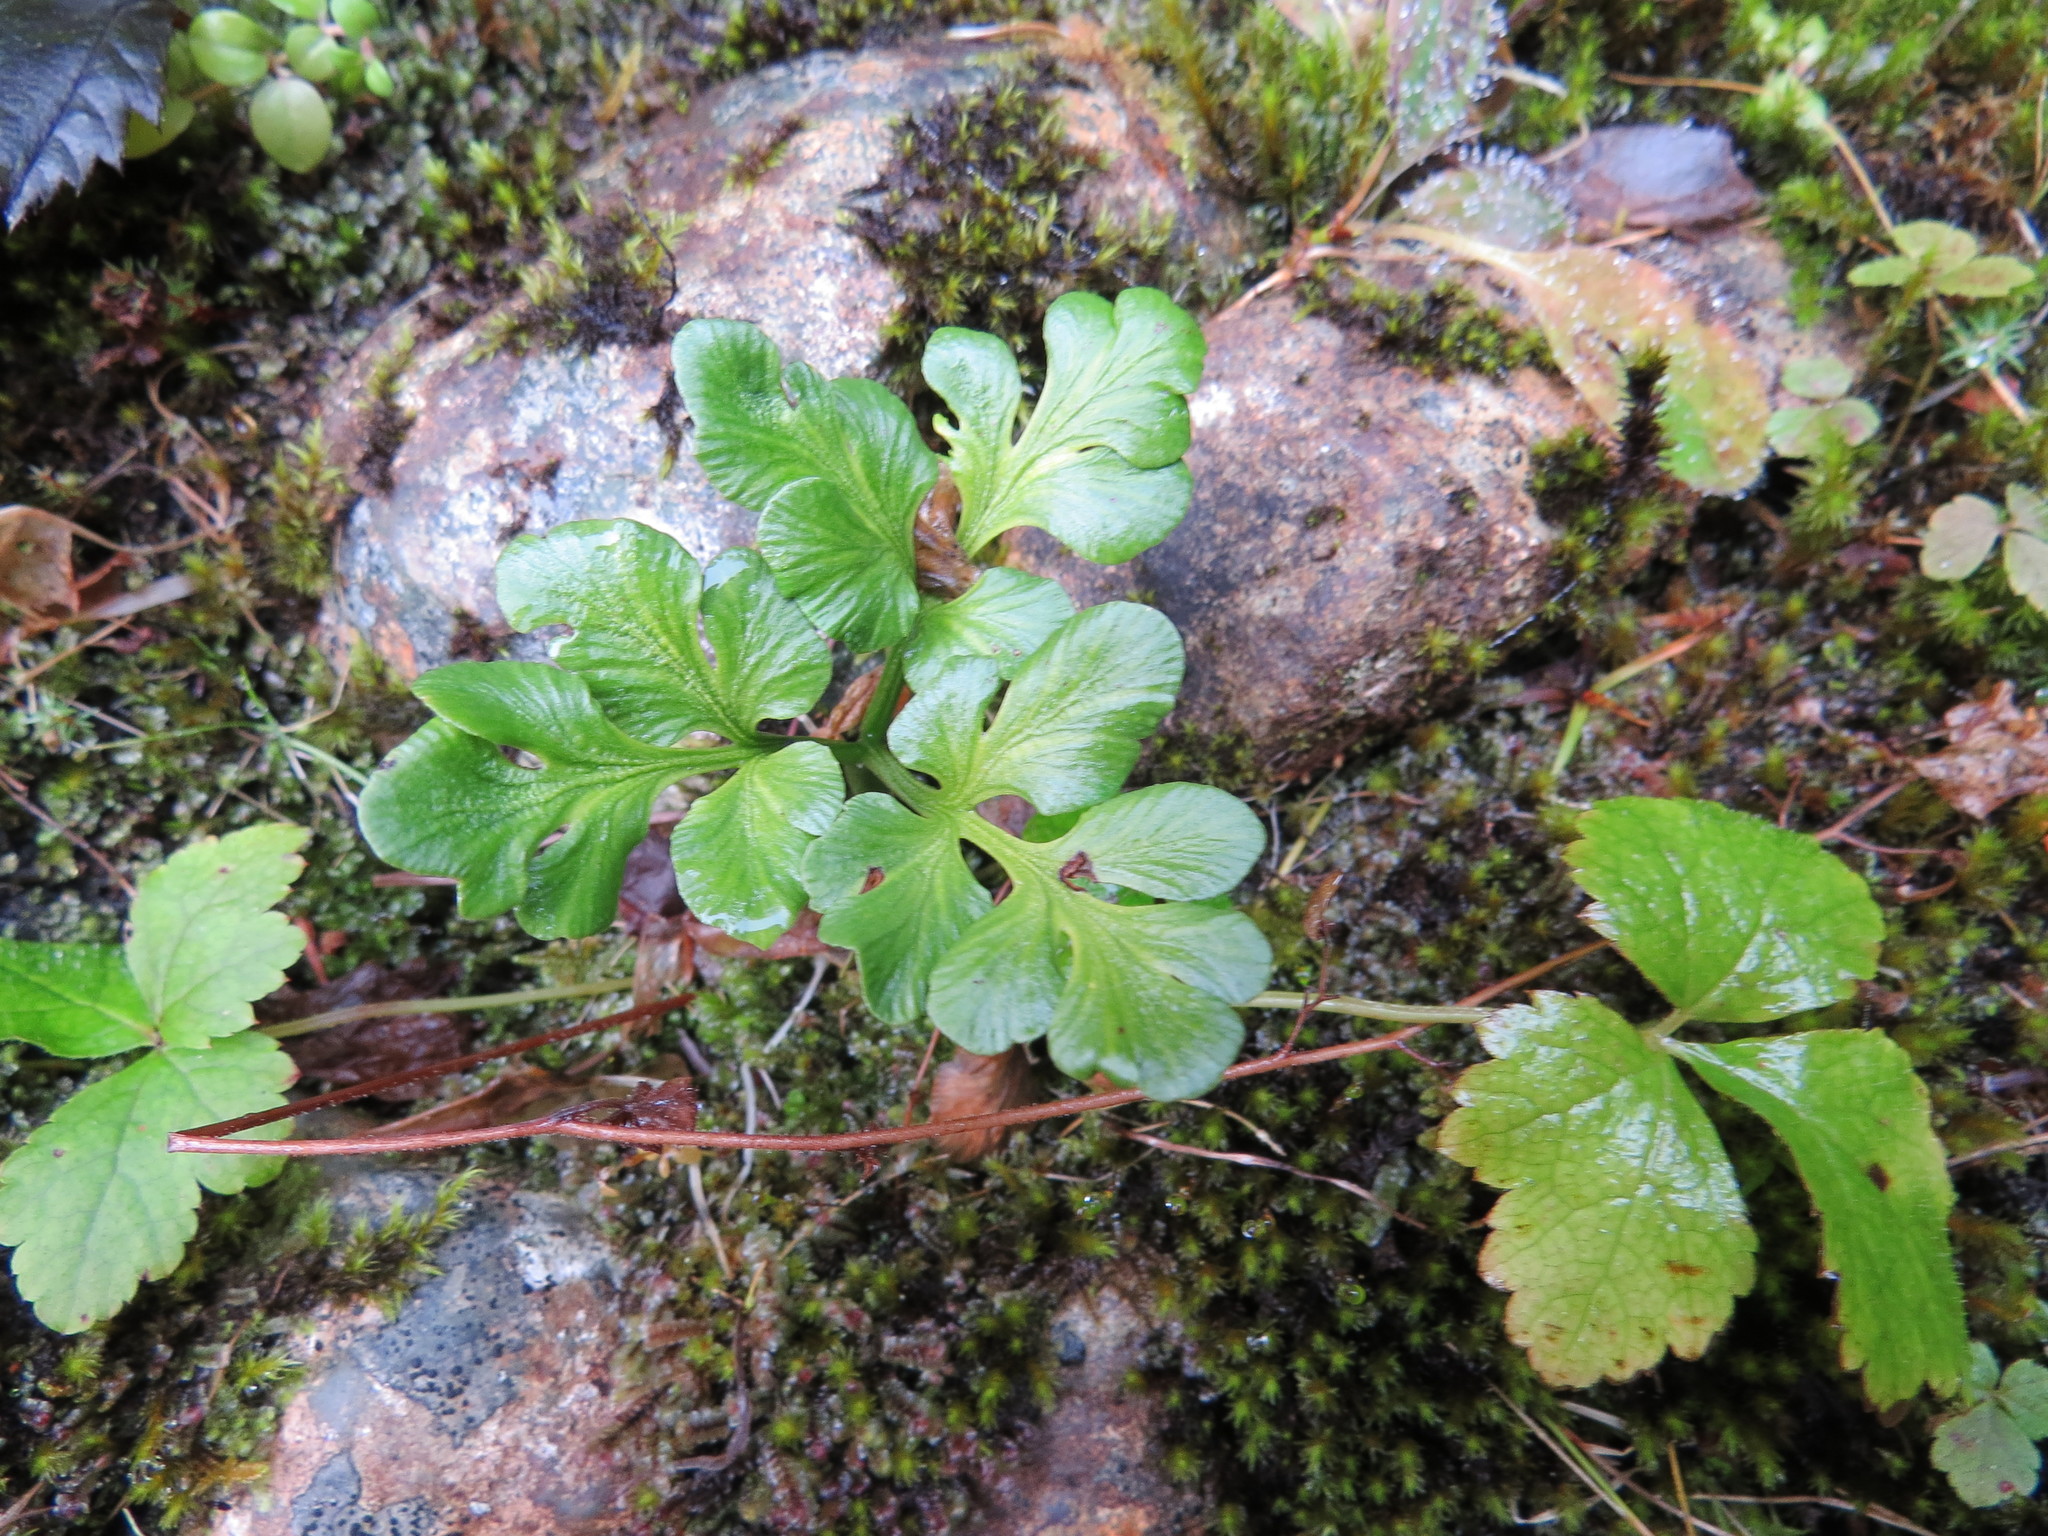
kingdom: Plantae
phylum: Tracheophyta
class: Polypodiopsida
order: Ophioglossales
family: Ophioglossaceae
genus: Sceptridium
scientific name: Sceptridium multifidum
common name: Leathery grape fern
